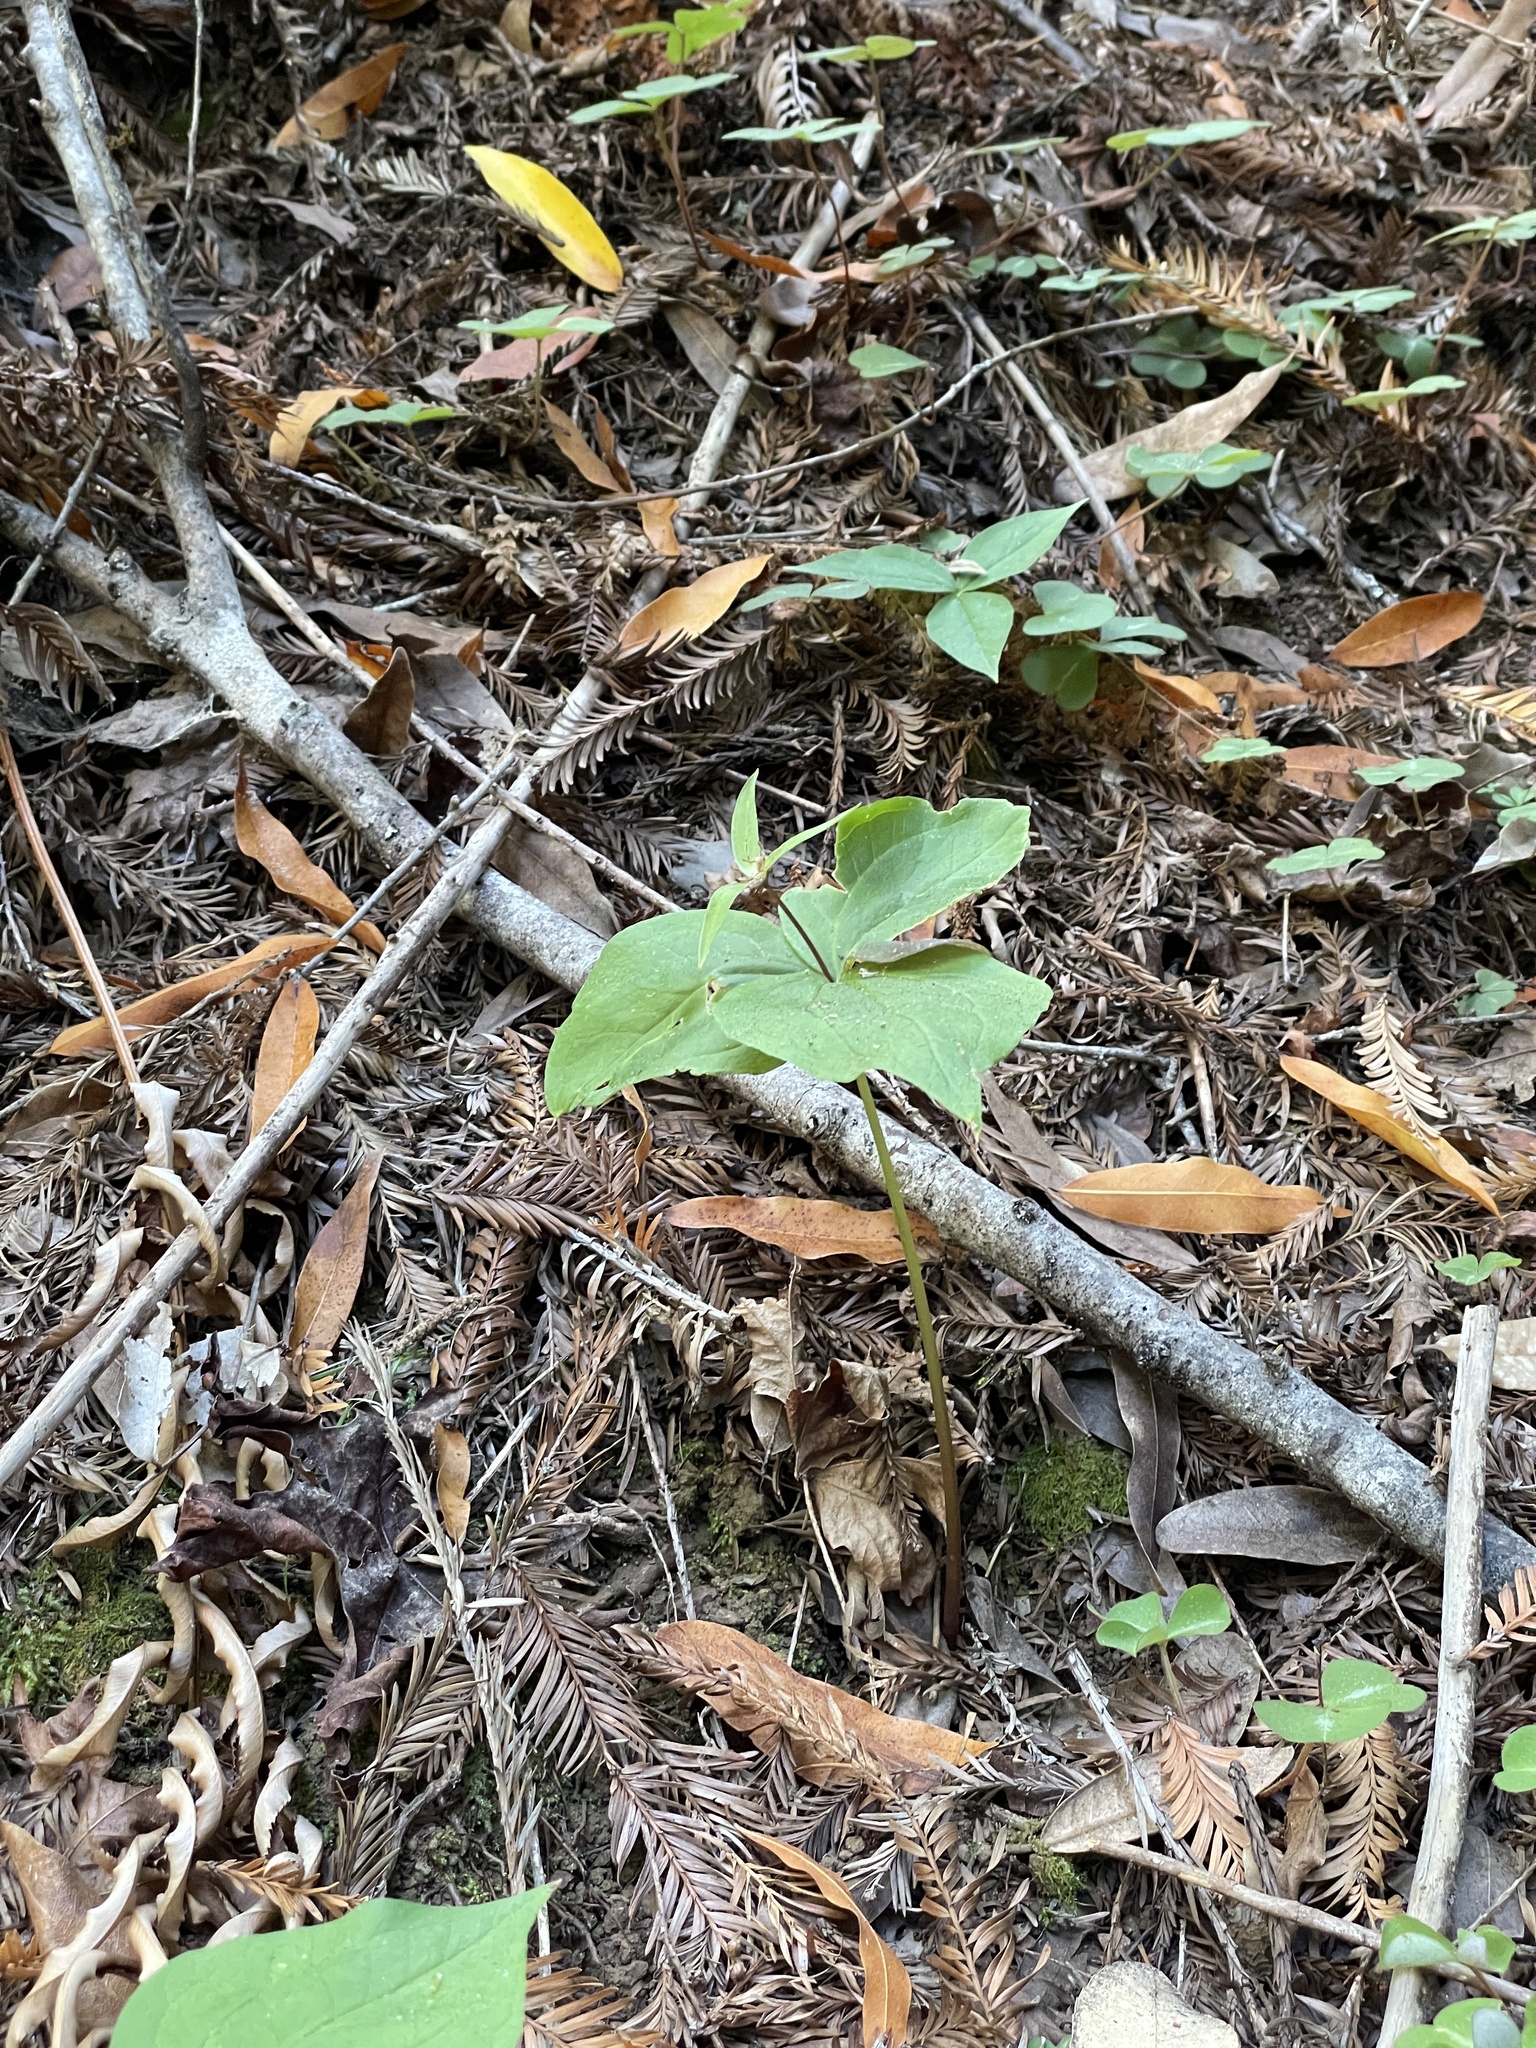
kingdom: Plantae
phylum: Tracheophyta
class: Liliopsida
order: Liliales
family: Melanthiaceae
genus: Trillium
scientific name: Trillium ovatum
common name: Pacific trillium
